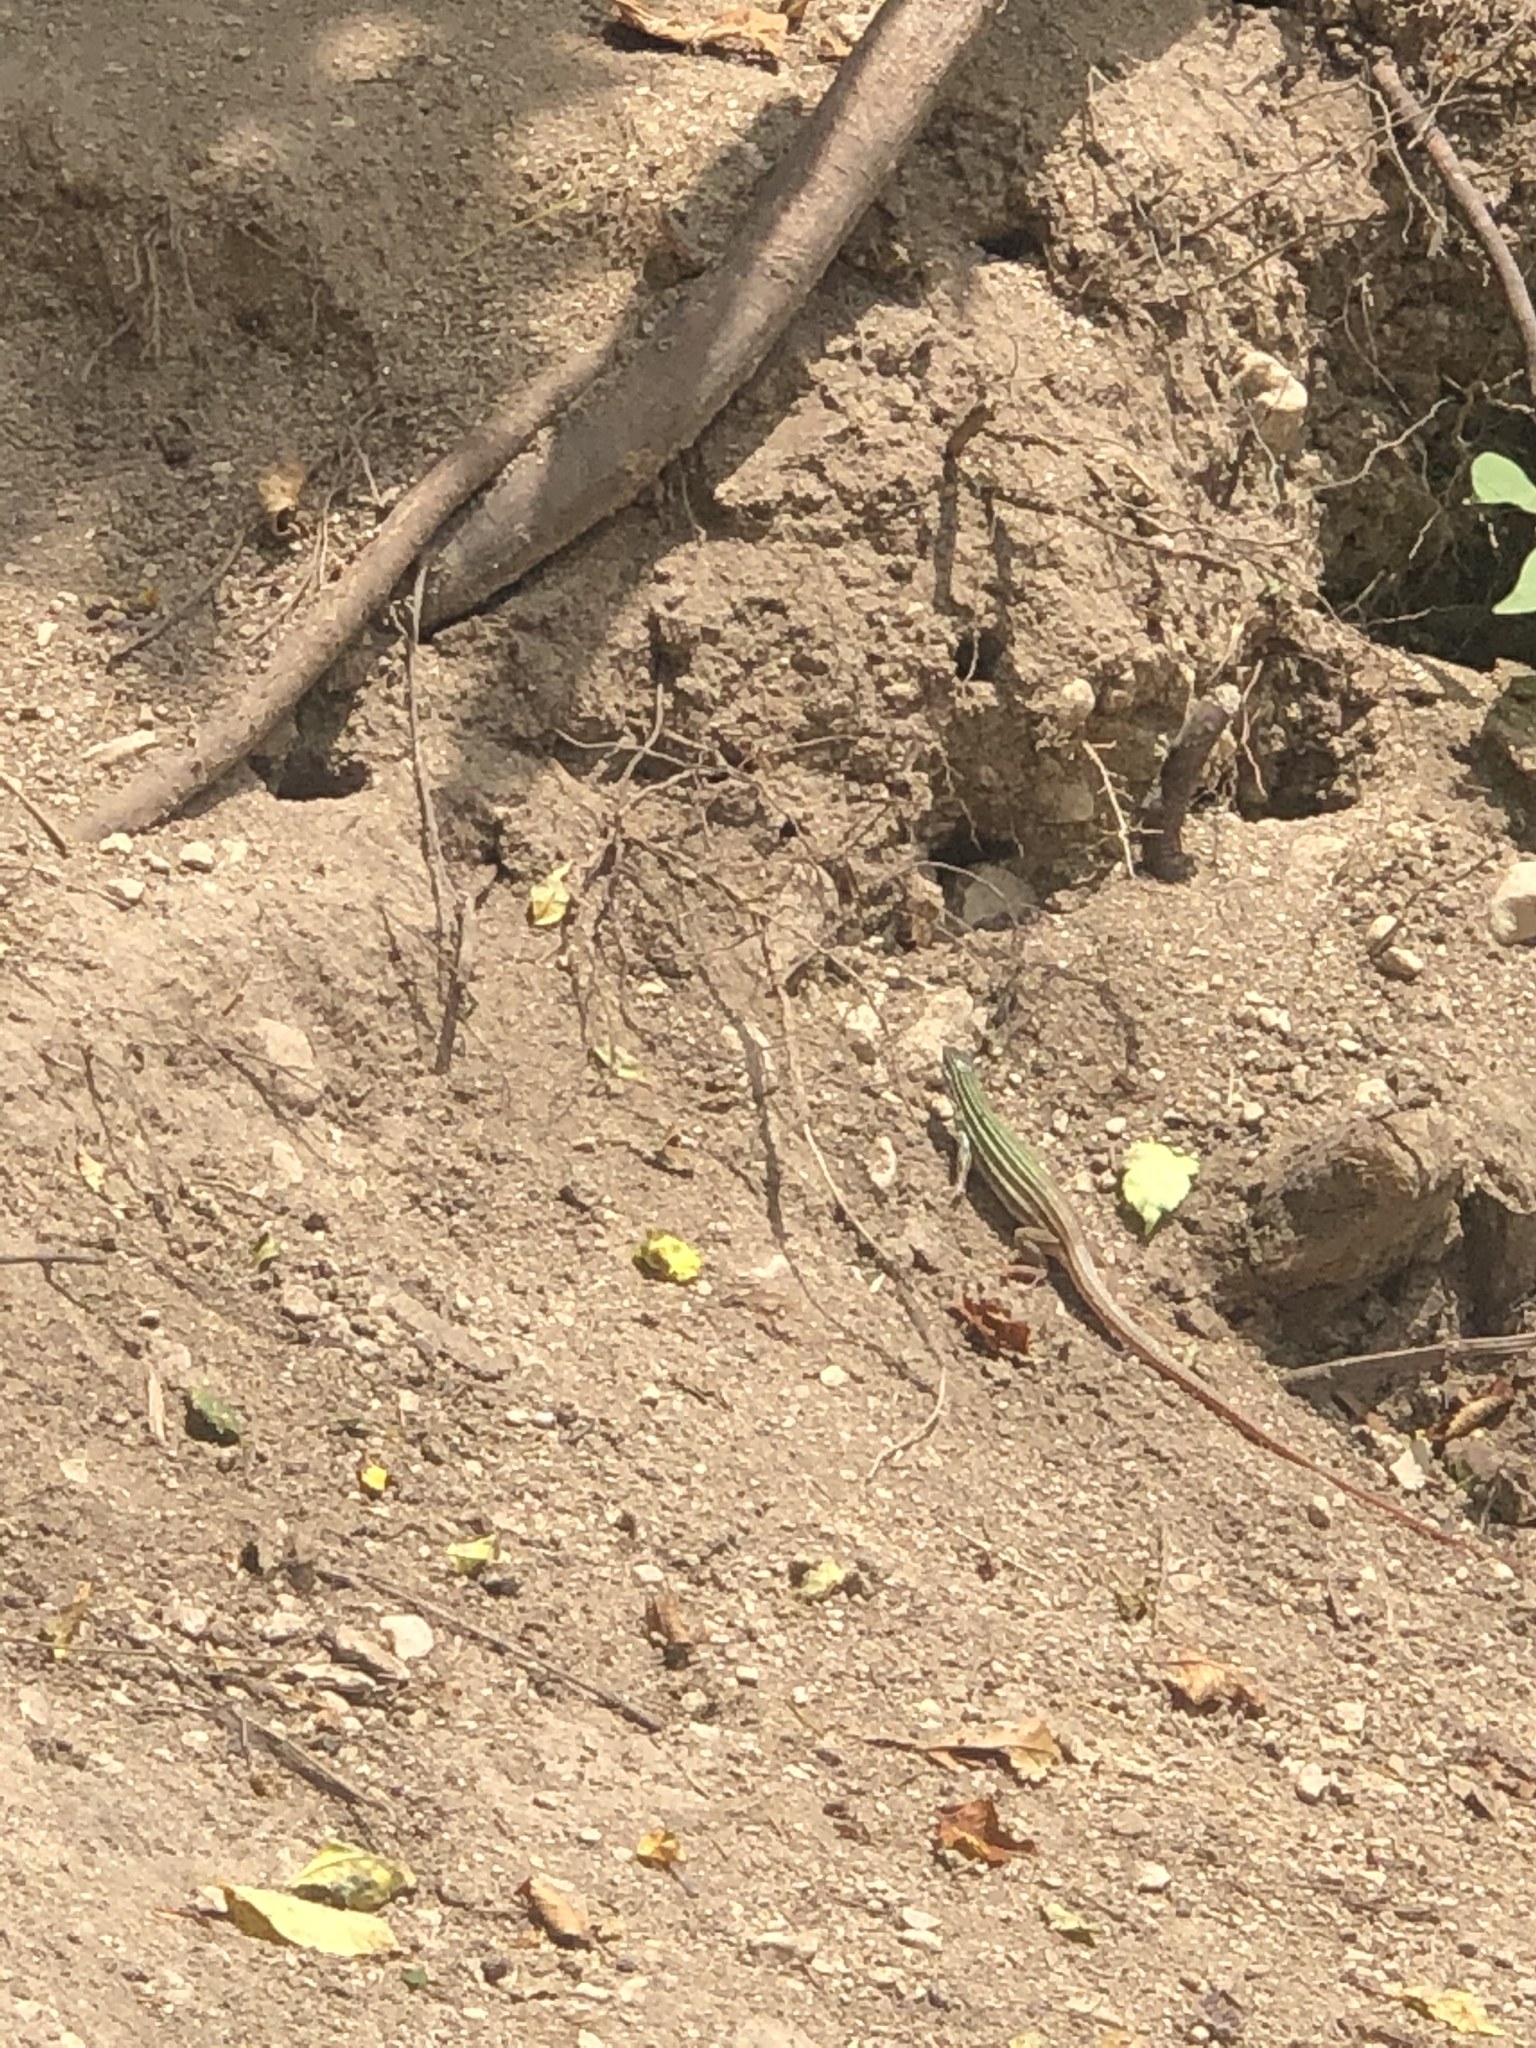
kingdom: Animalia
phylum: Chordata
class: Squamata
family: Teiidae
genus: Aspidoscelis
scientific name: Aspidoscelis gularis
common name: Eastern spotted whiptail
